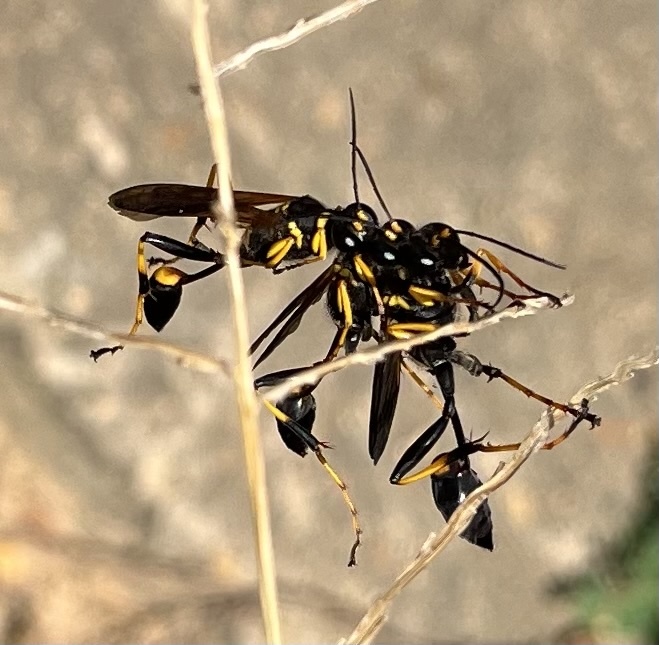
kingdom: Animalia
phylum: Arthropoda
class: Insecta
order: Hymenoptera
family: Sphecidae
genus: Sceliphron
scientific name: Sceliphron caementarium
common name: Mud dauber
